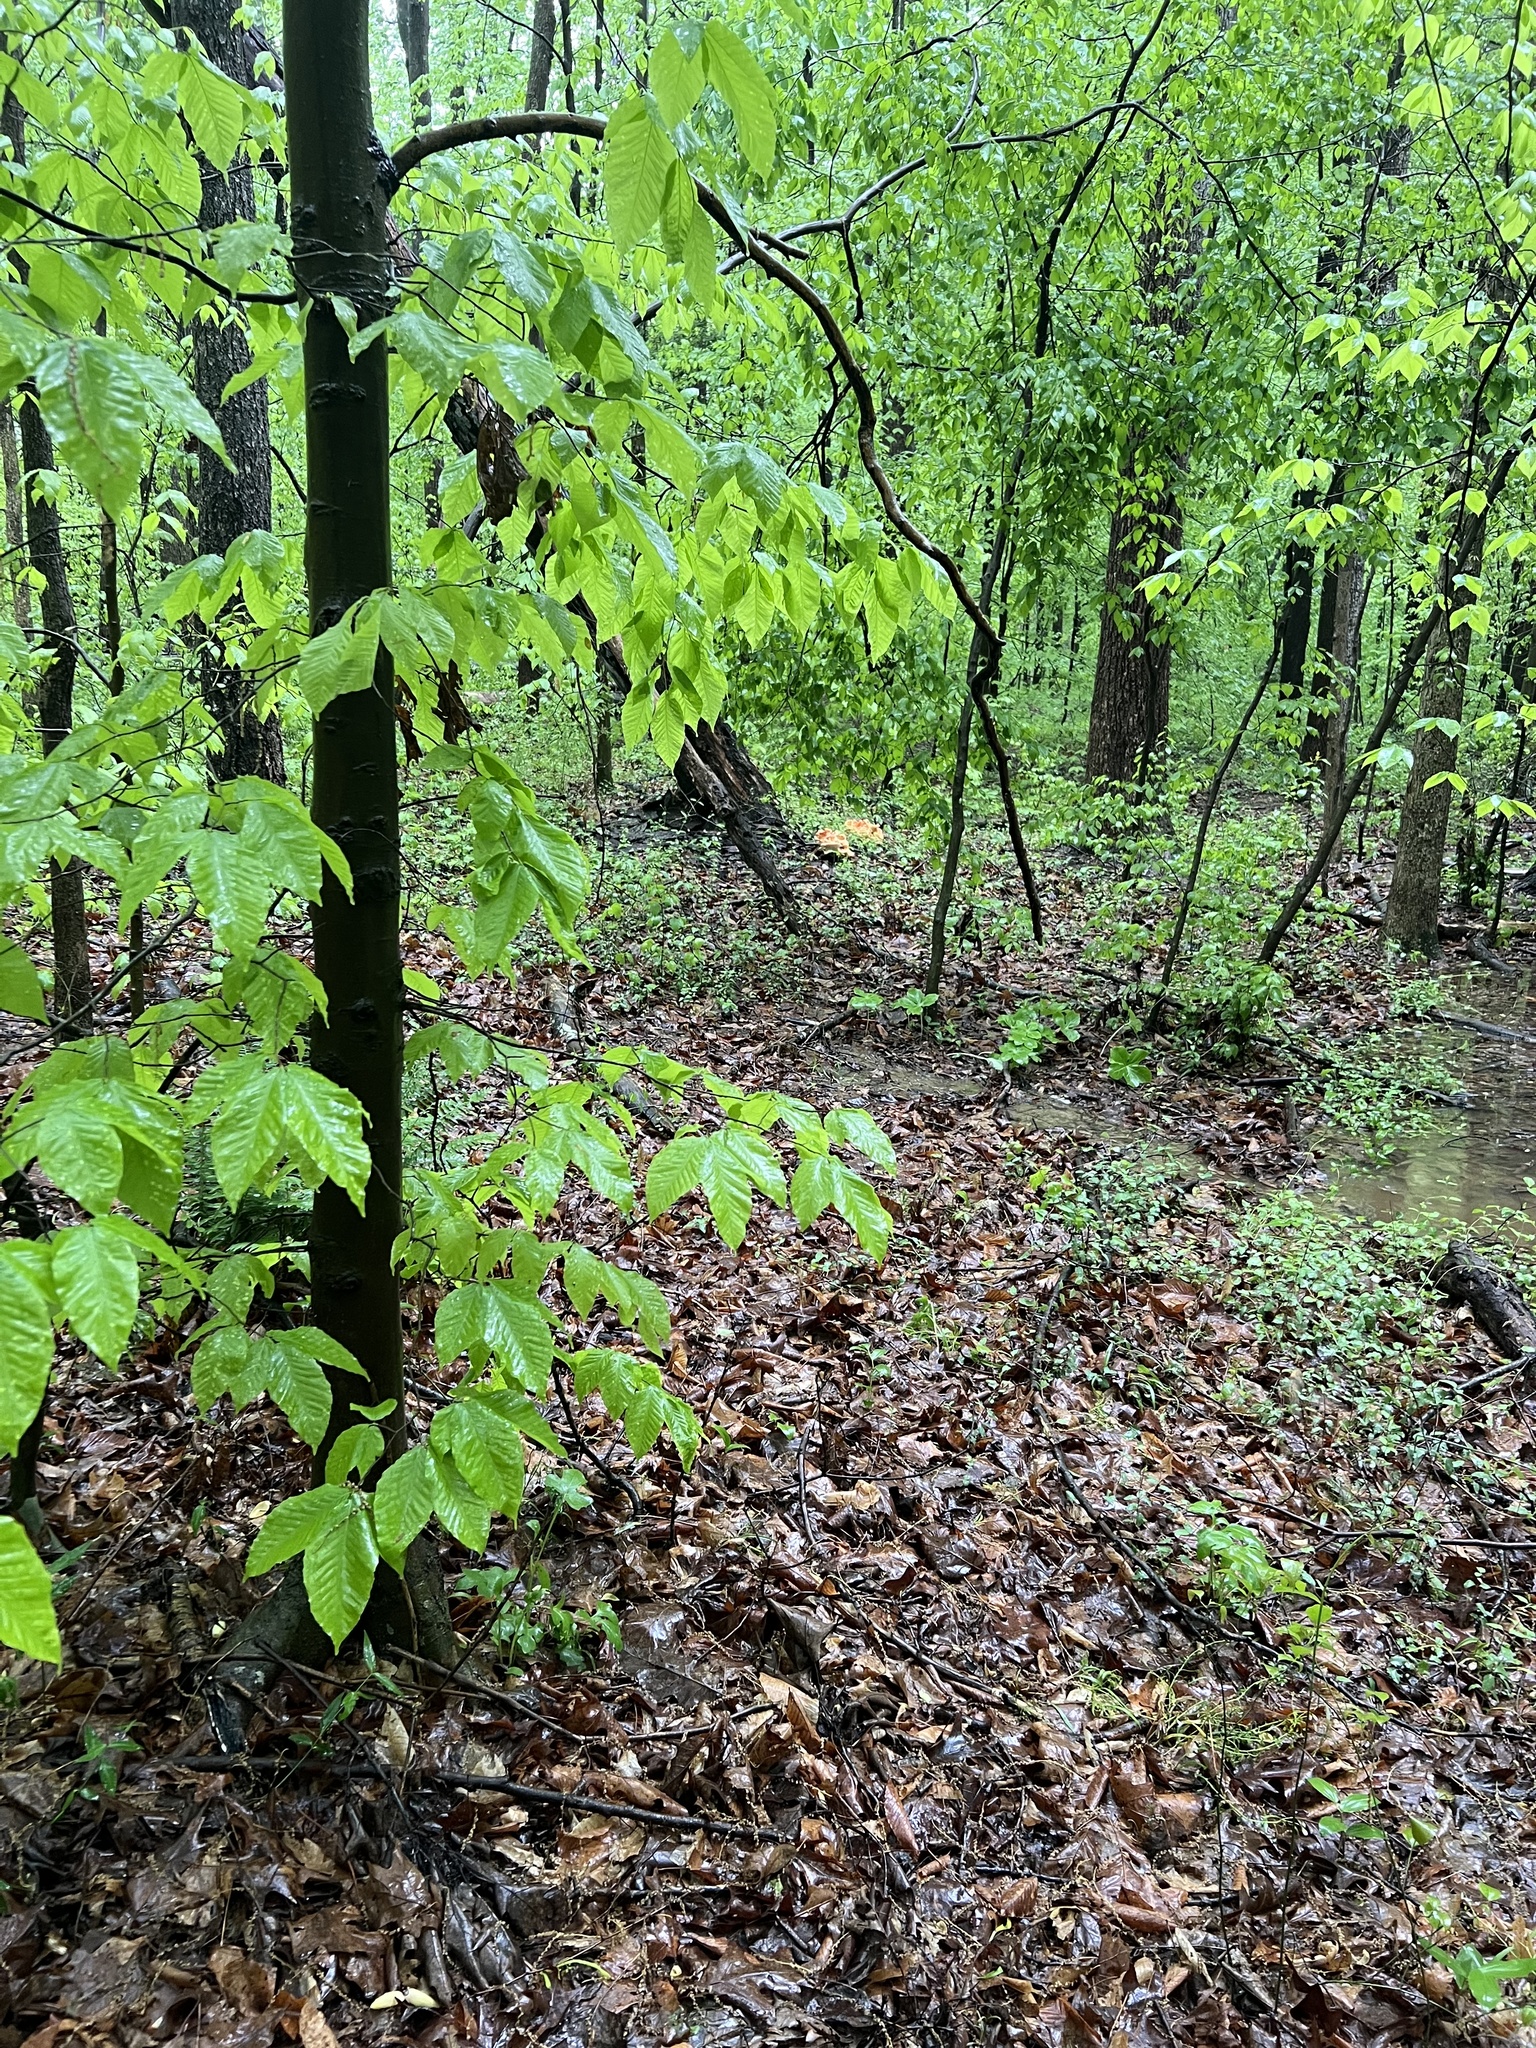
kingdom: Fungi
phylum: Basidiomycota
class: Agaricomycetes
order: Polyporales
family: Laetiporaceae
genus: Laetiporus
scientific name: Laetiporus sulphureus
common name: Chicken of the woods
